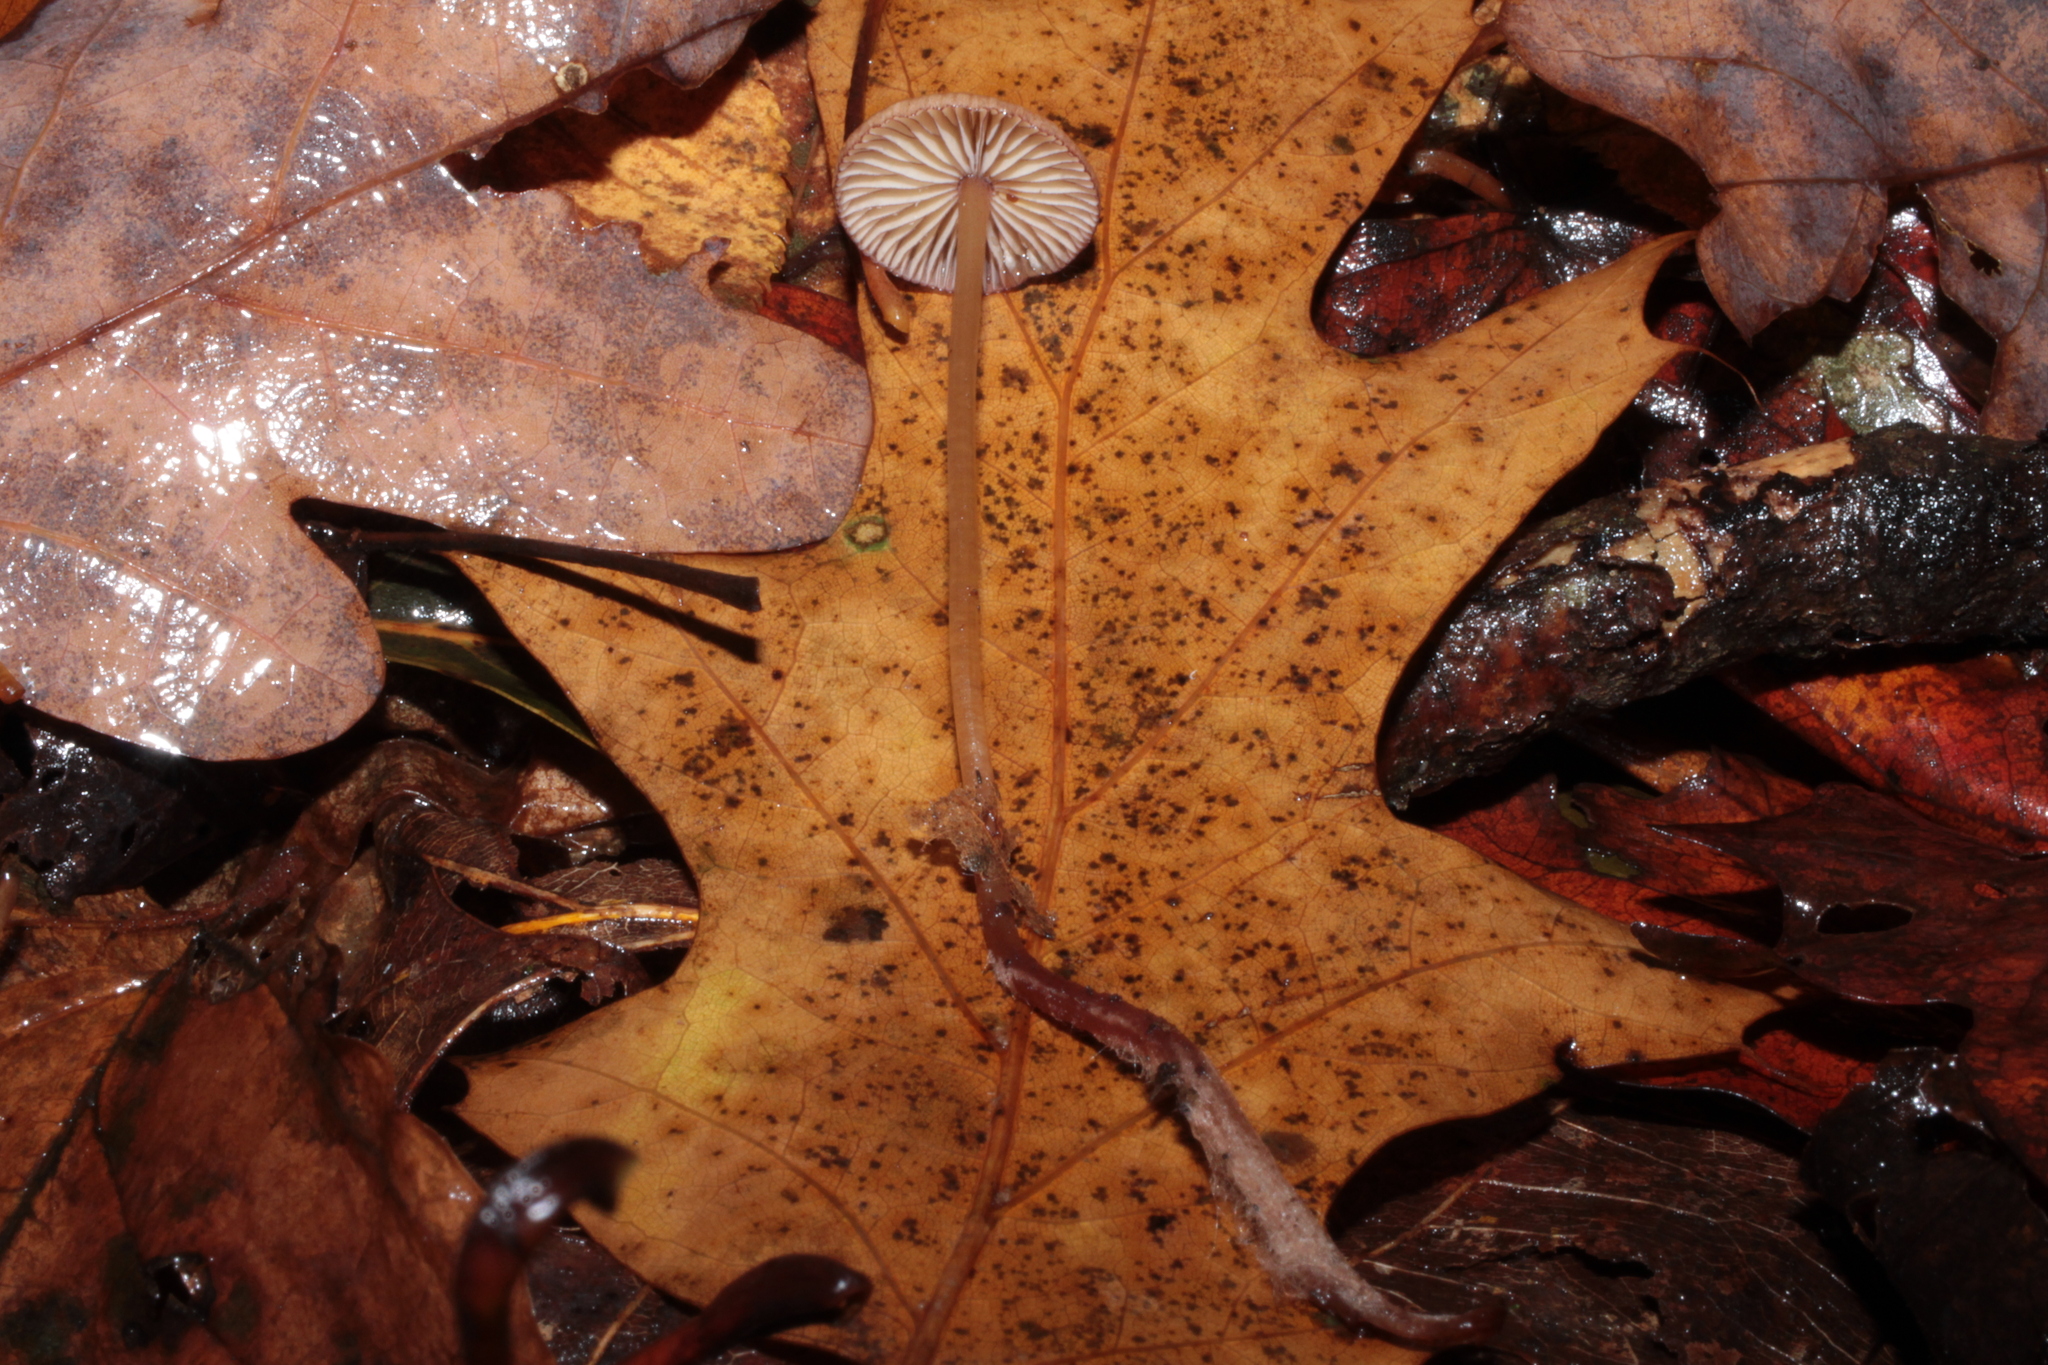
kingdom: Fungi
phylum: Basidiomycota
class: Agaricomycetes
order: Agaricales
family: Physalacriaceae
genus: Rhizomarasmius
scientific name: Rhizomarasmius pyrrhocephalus
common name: Hairy long stem marasmius
